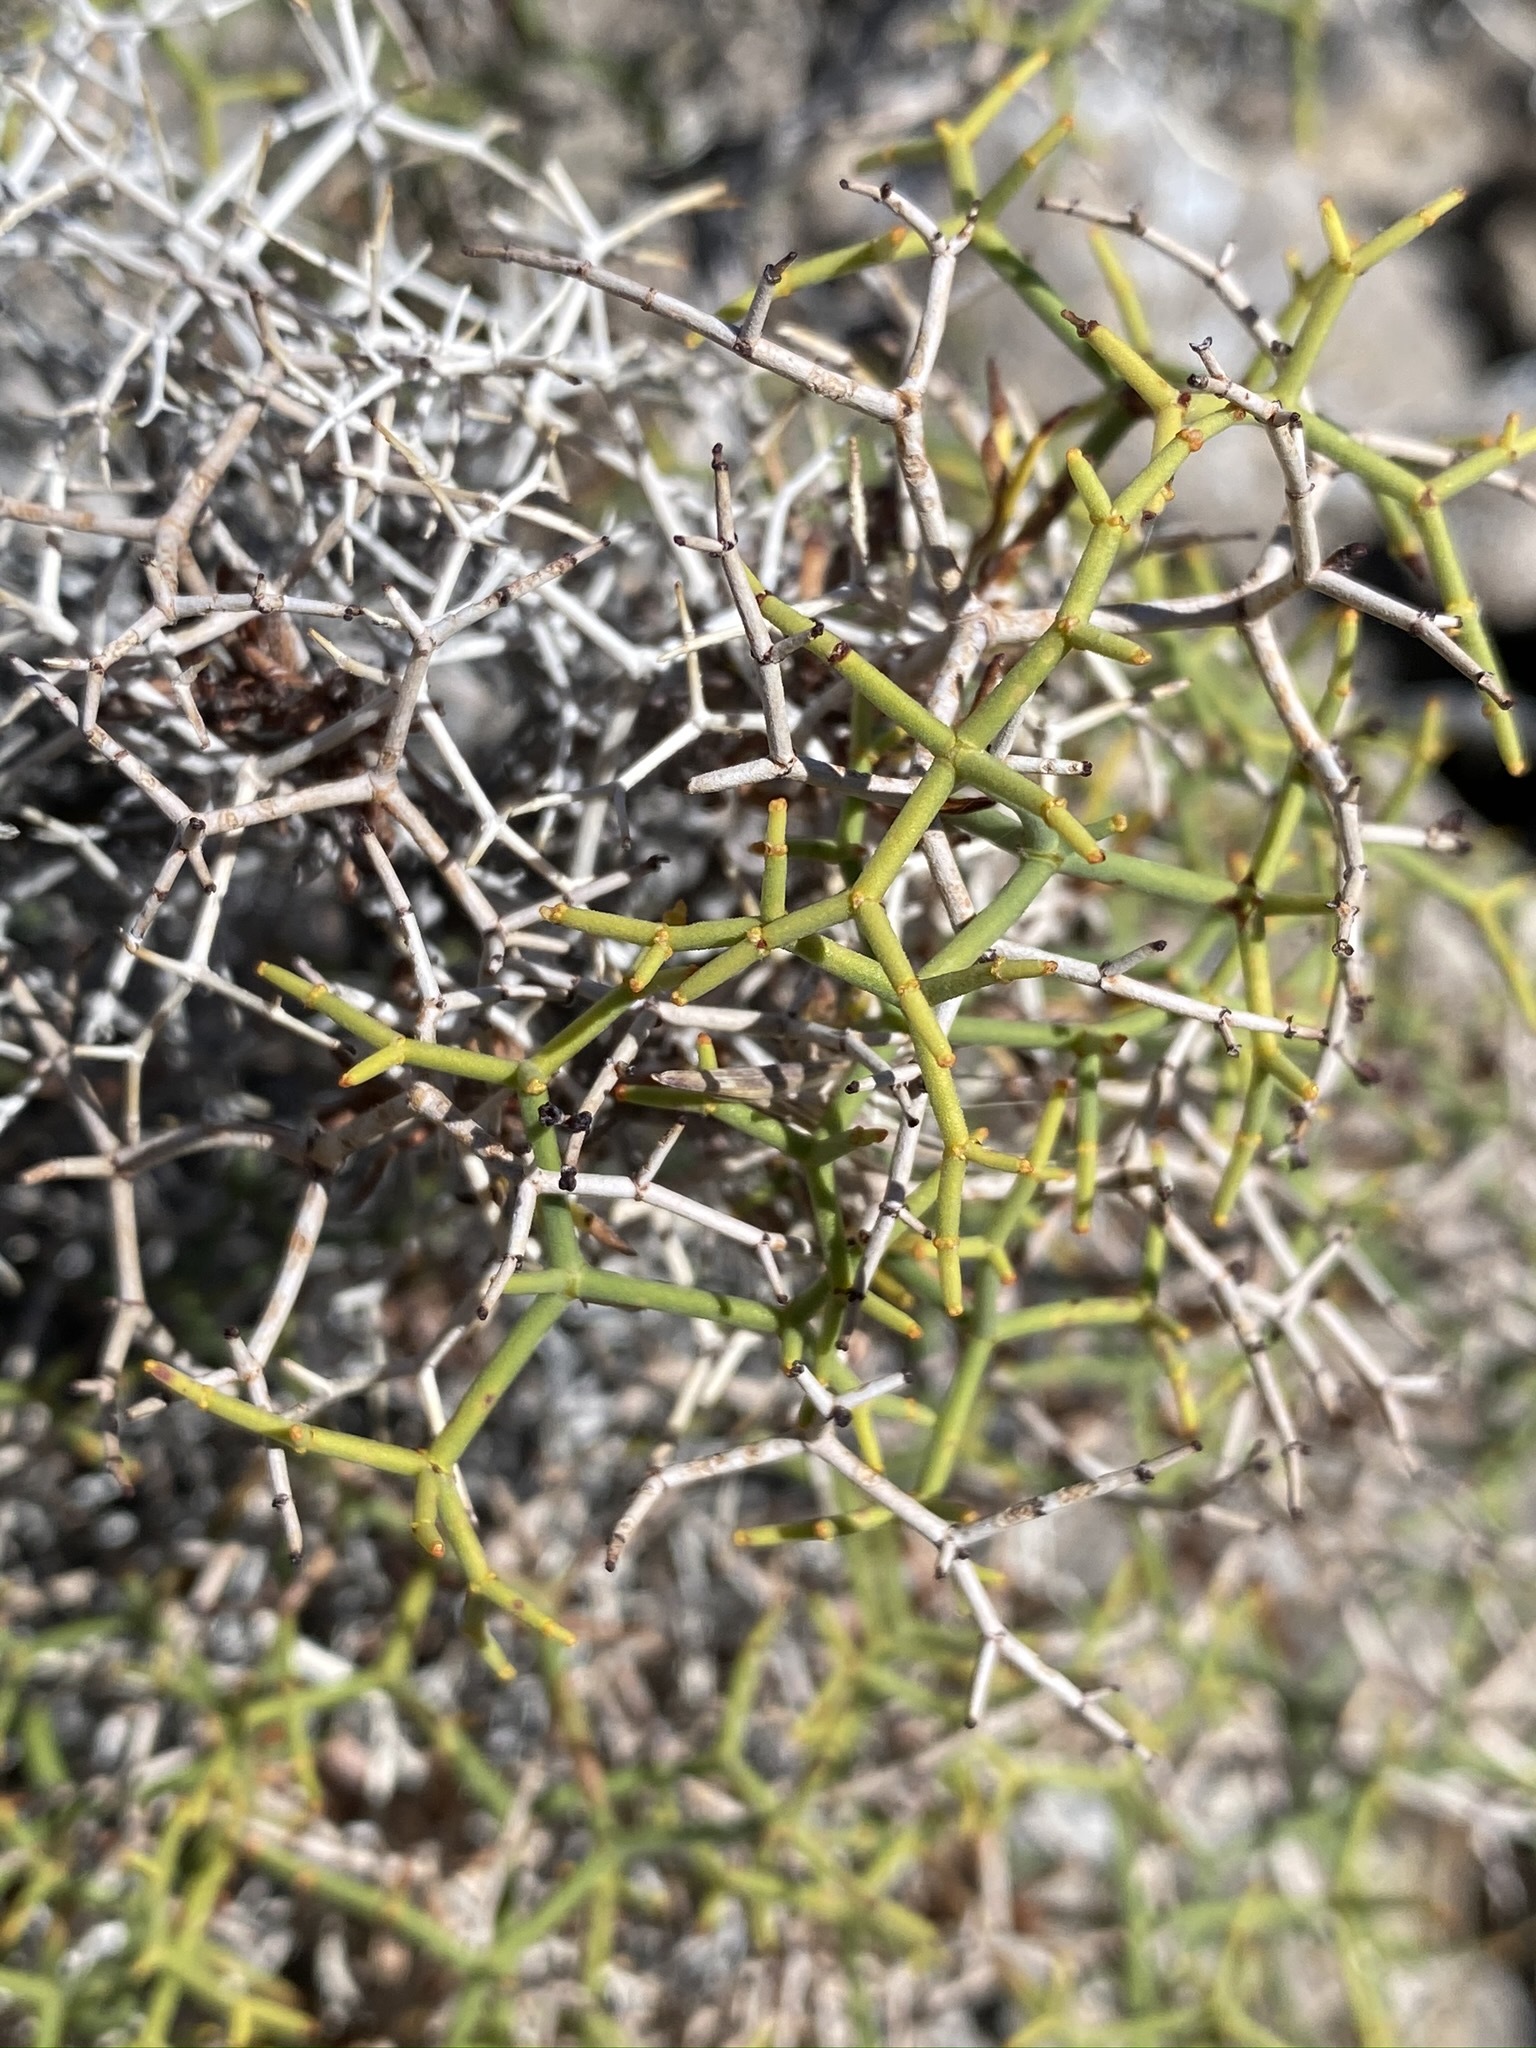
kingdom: Plantae
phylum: Tracheophyta
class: Magnoliopsida
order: Caryophyllales
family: Polygonaceae
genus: Eriogonum
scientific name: Eriogonum heermannii
